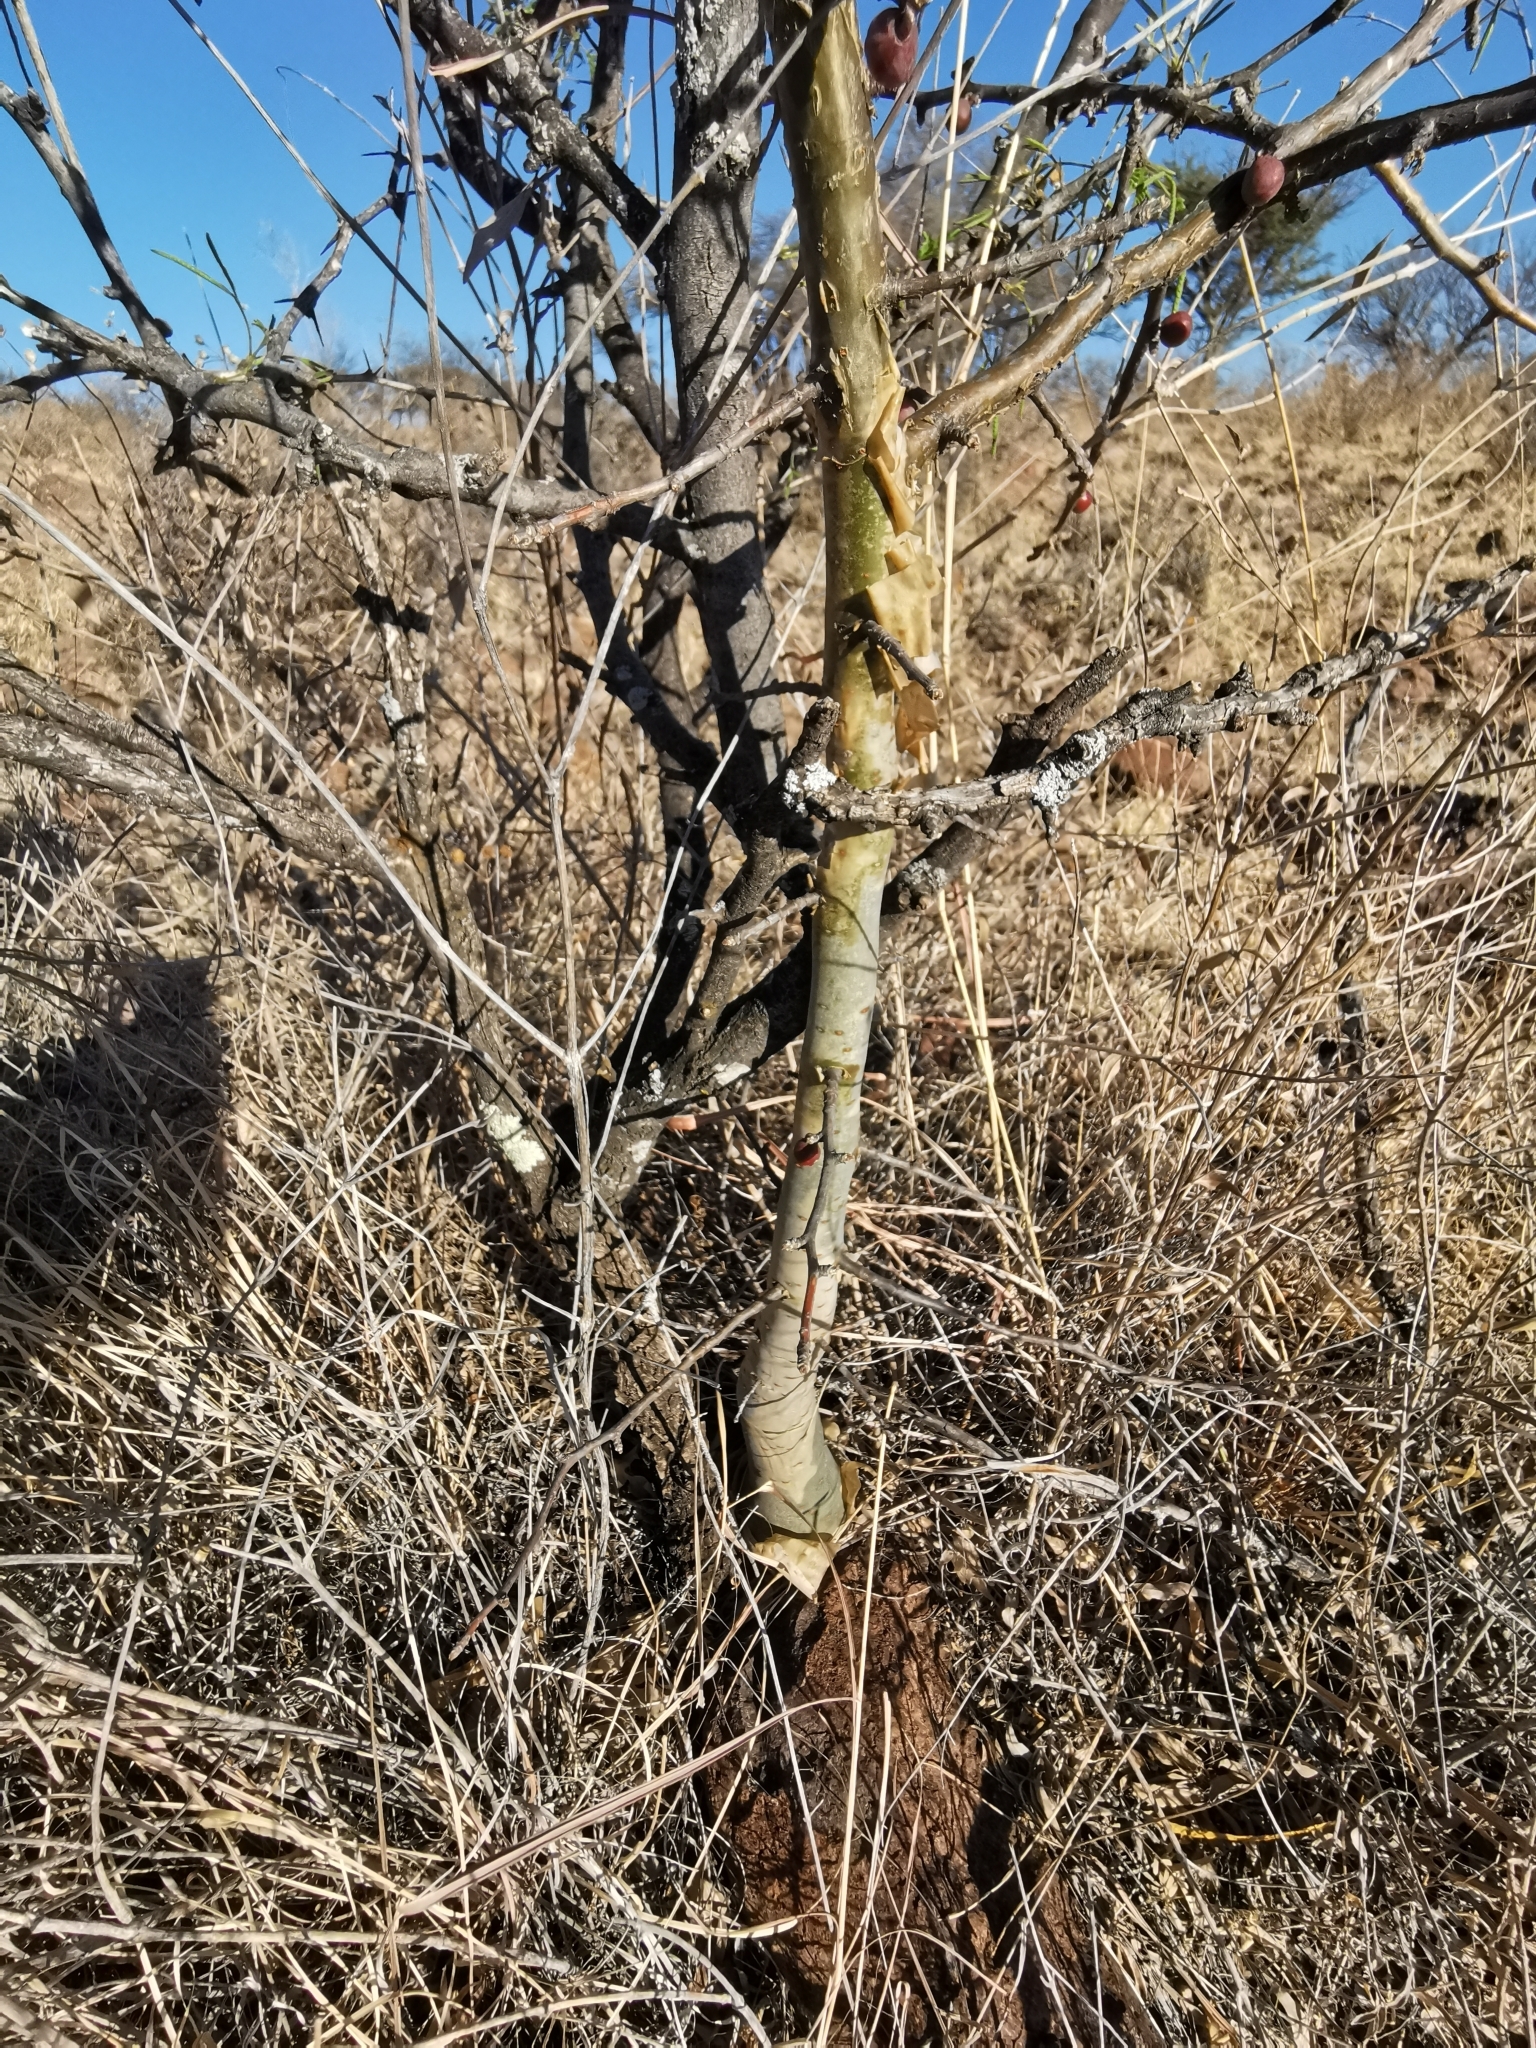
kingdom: Plantae
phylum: Tracheophyta
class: Magnoliopsida
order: Sapindales
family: Burseraceae
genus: Bursera
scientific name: Bursera fagaroides
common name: Elephant tree
